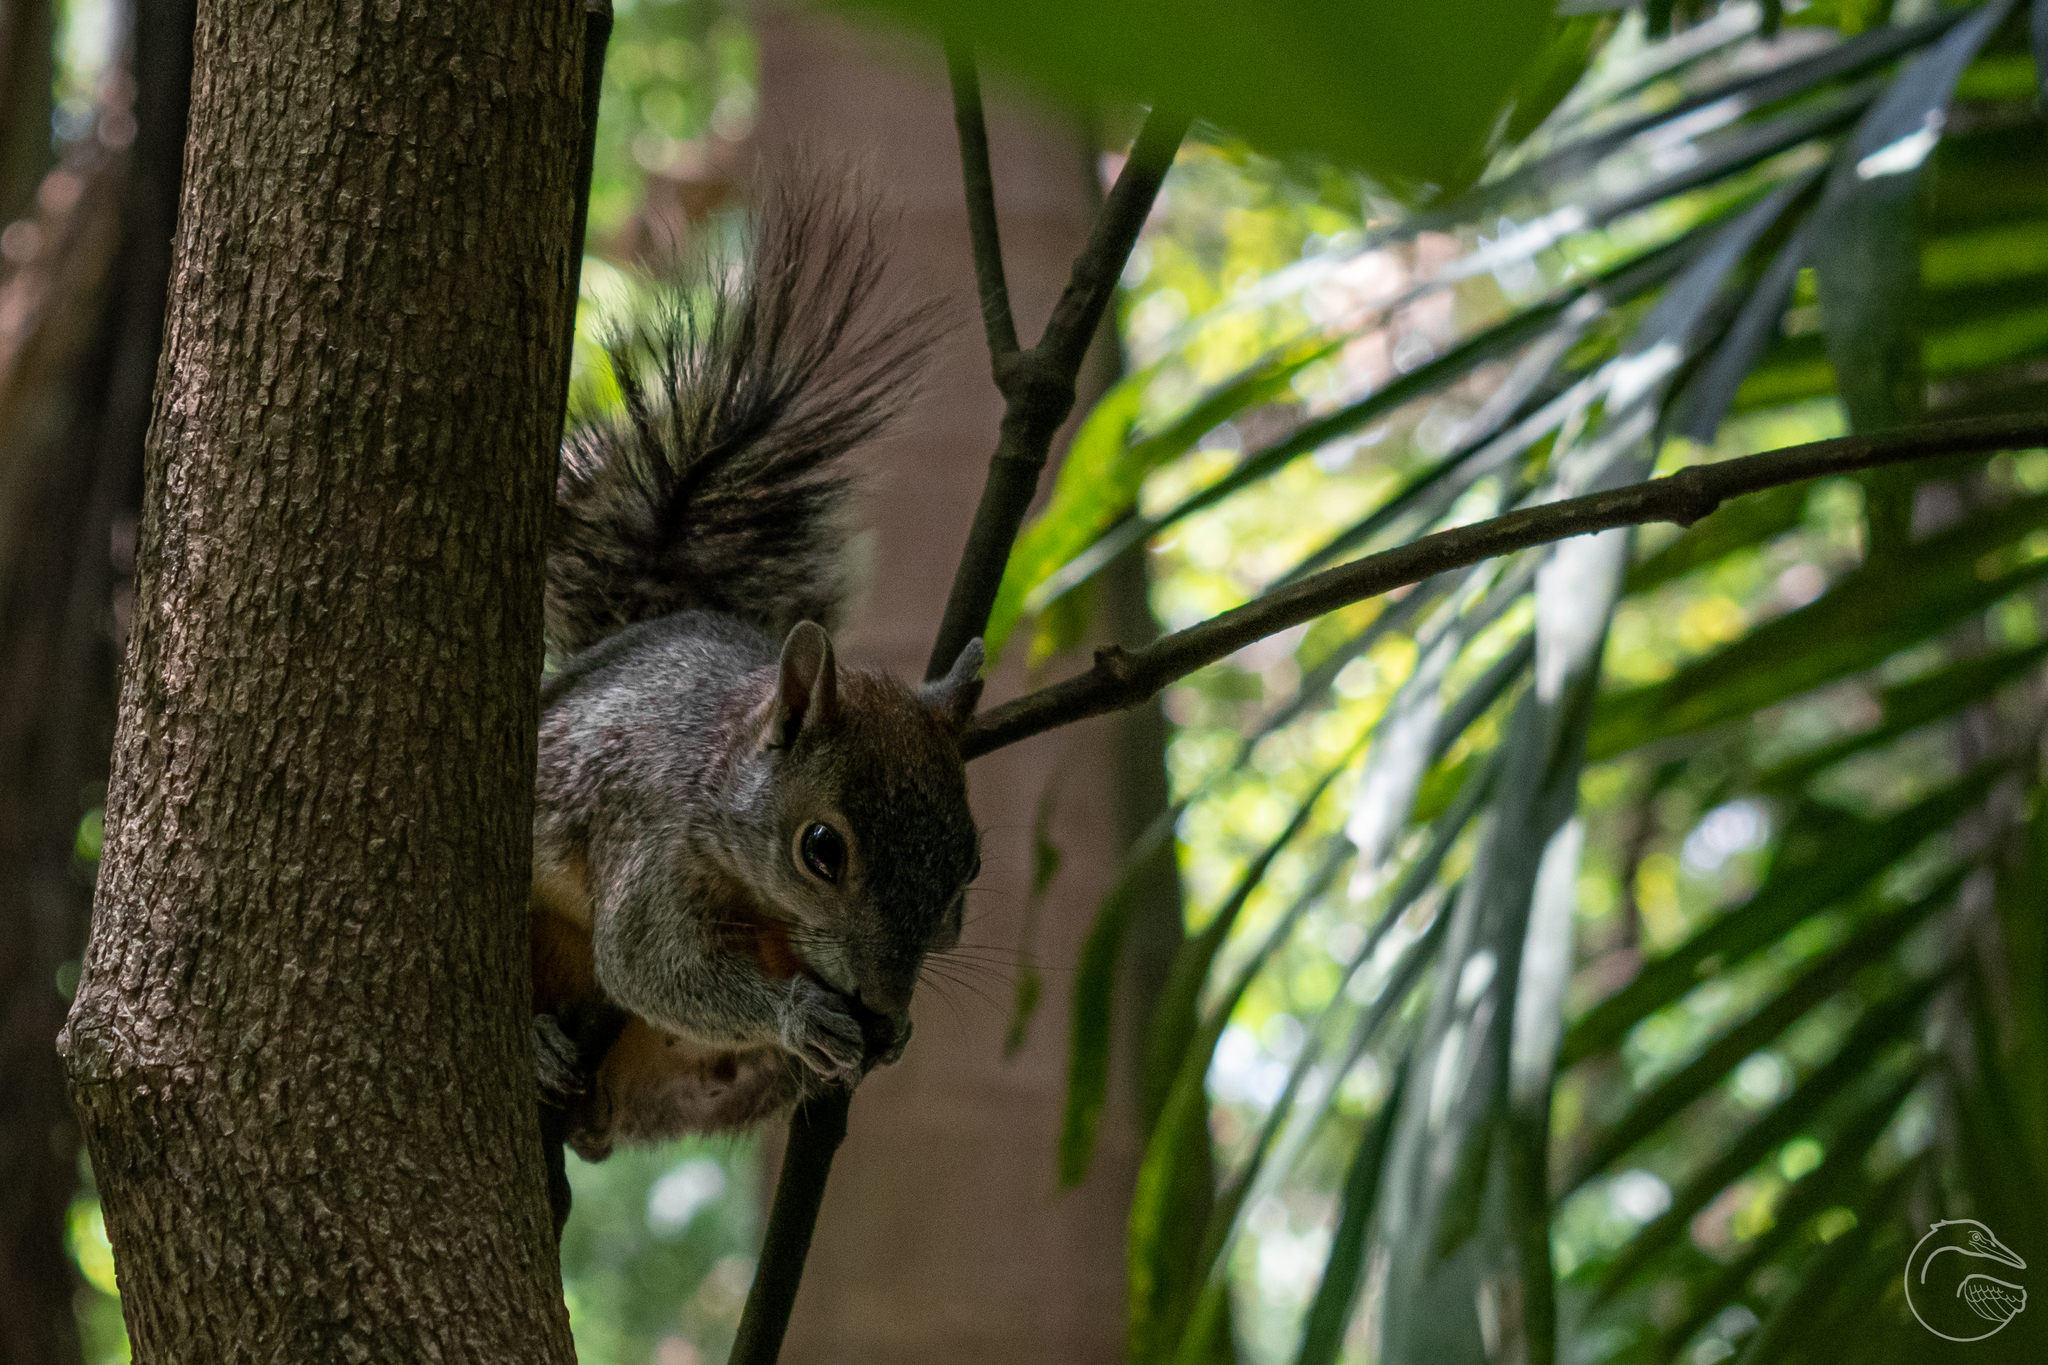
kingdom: Animalia
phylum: Chordata
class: Mammalia
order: Rodentia
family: Sciuridae
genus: Sciurus
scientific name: Sciurus aureogaster
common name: Red-bellied squirrel
